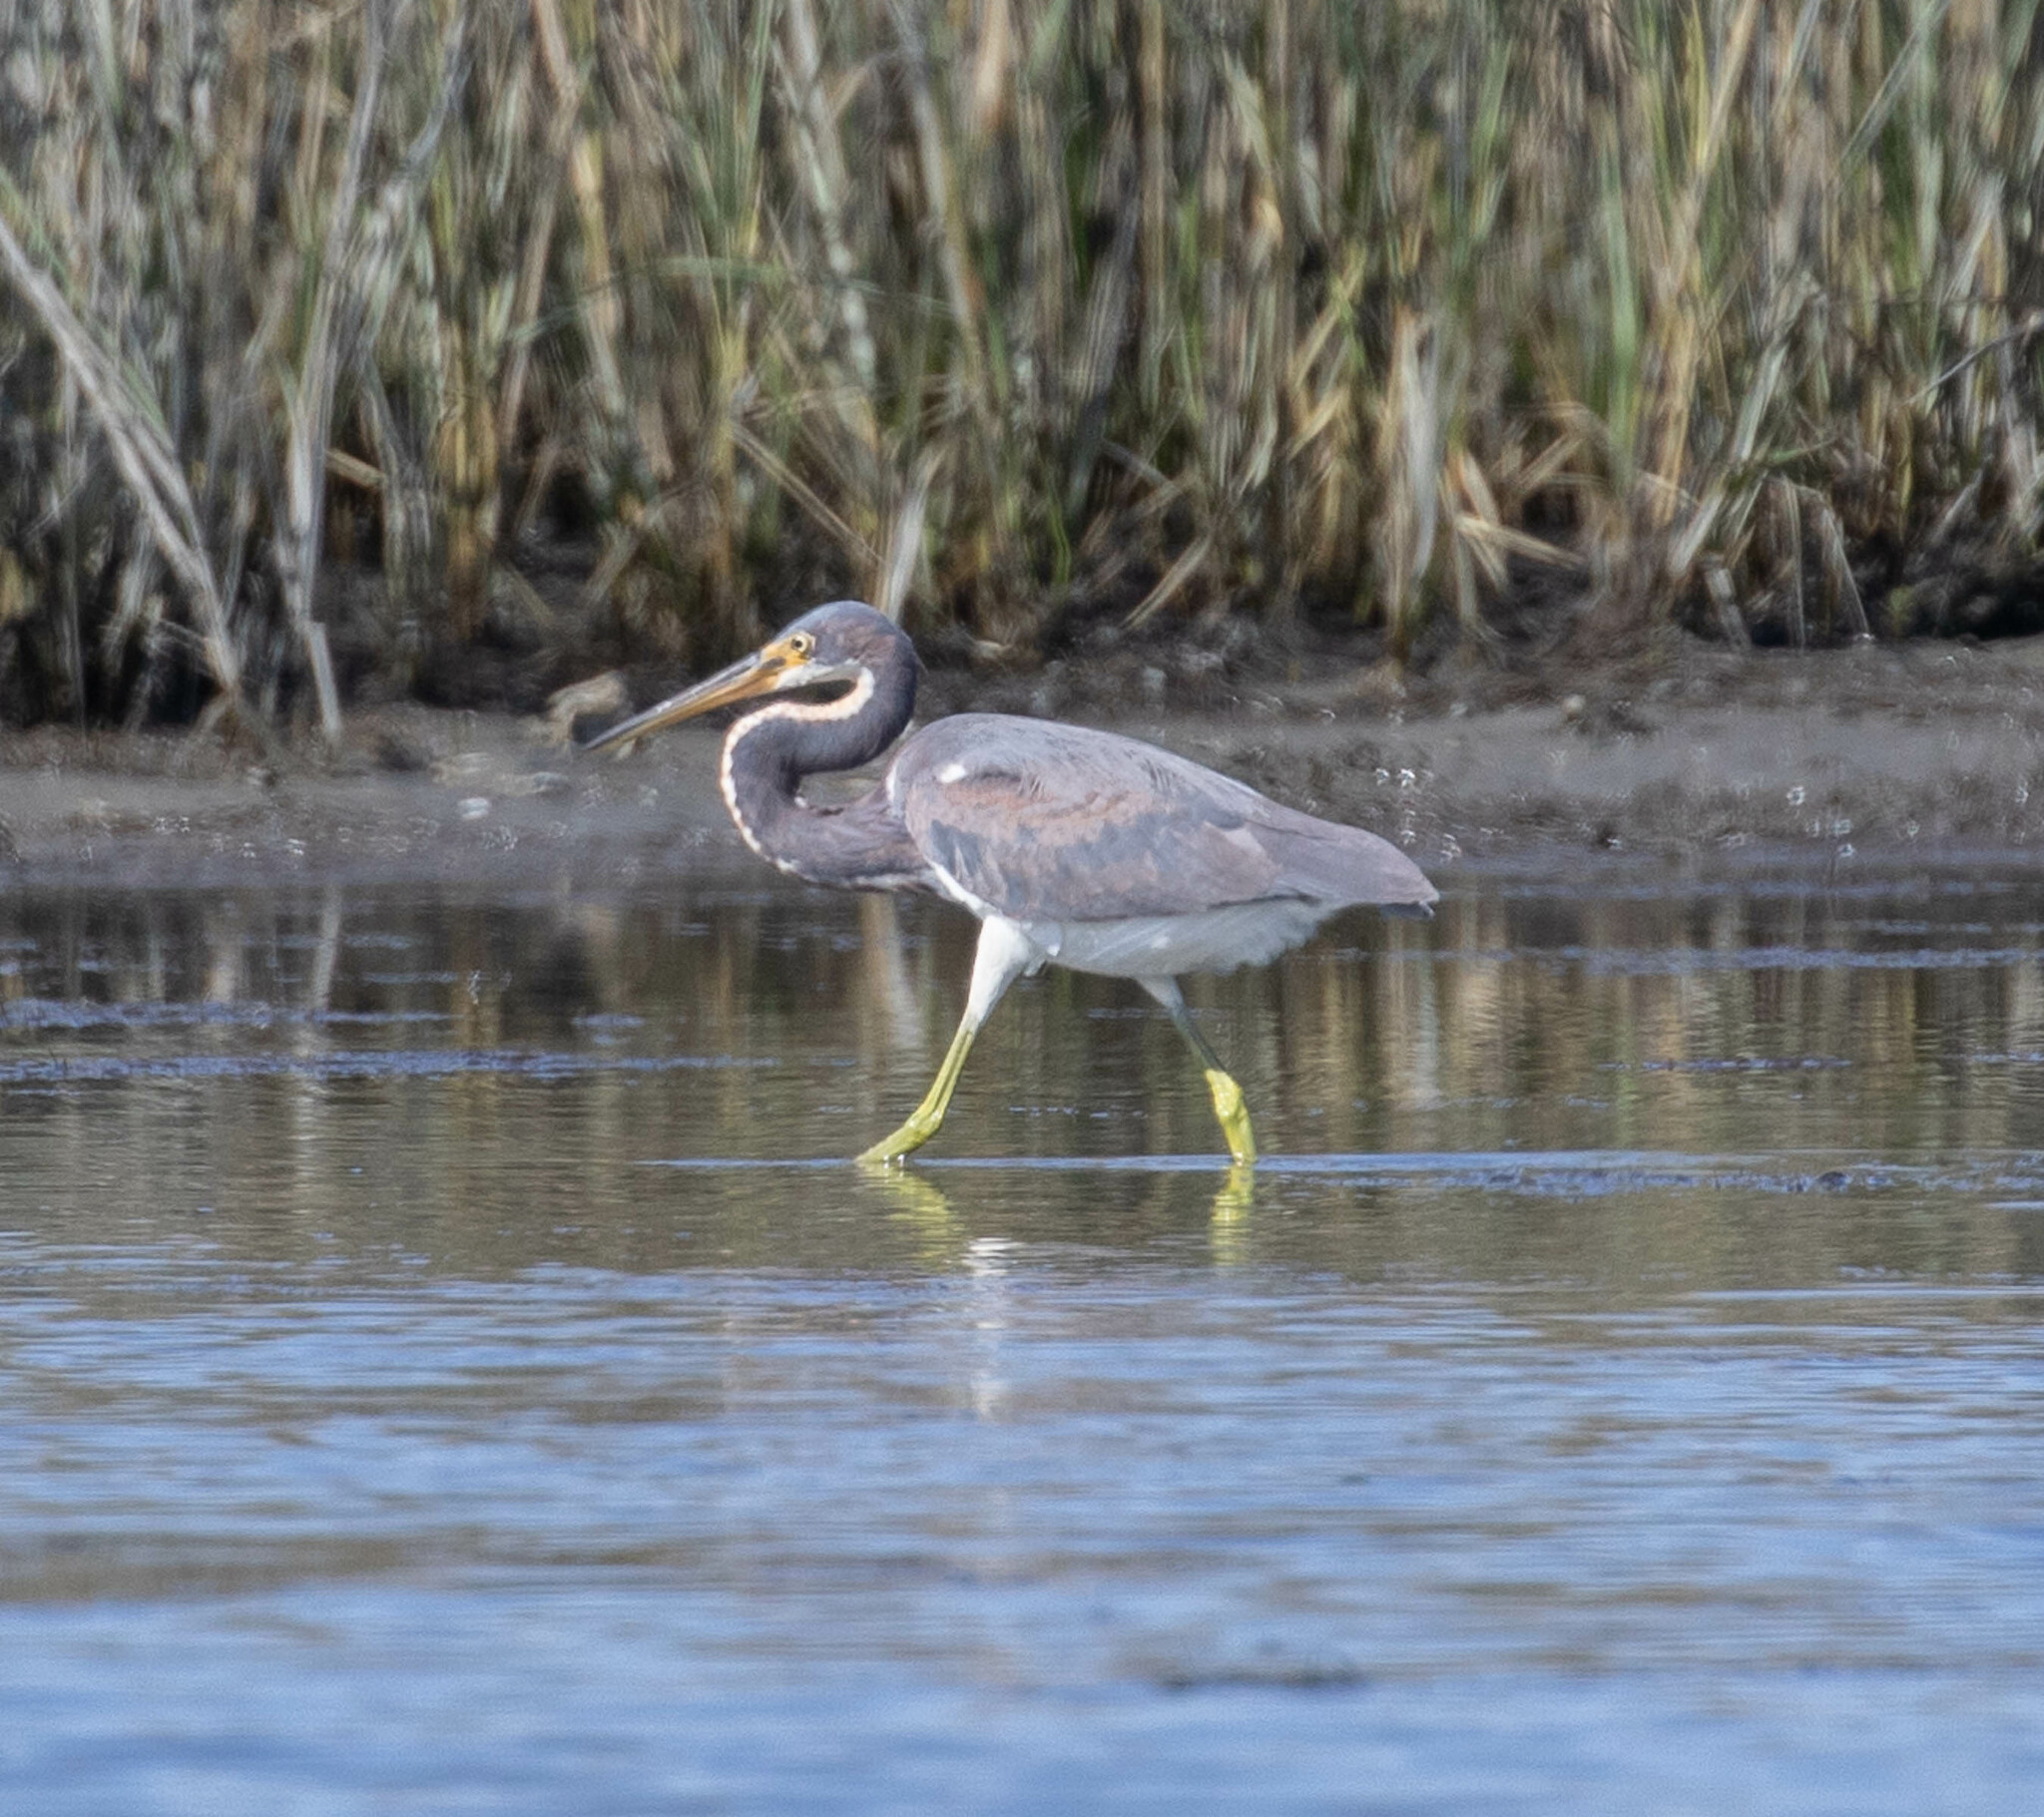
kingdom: Animalia
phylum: Chordata
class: Aves
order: Pelecaniformes
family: Ardeidae
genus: Egretta
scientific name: Egretta tricolor
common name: Tricolored heron
